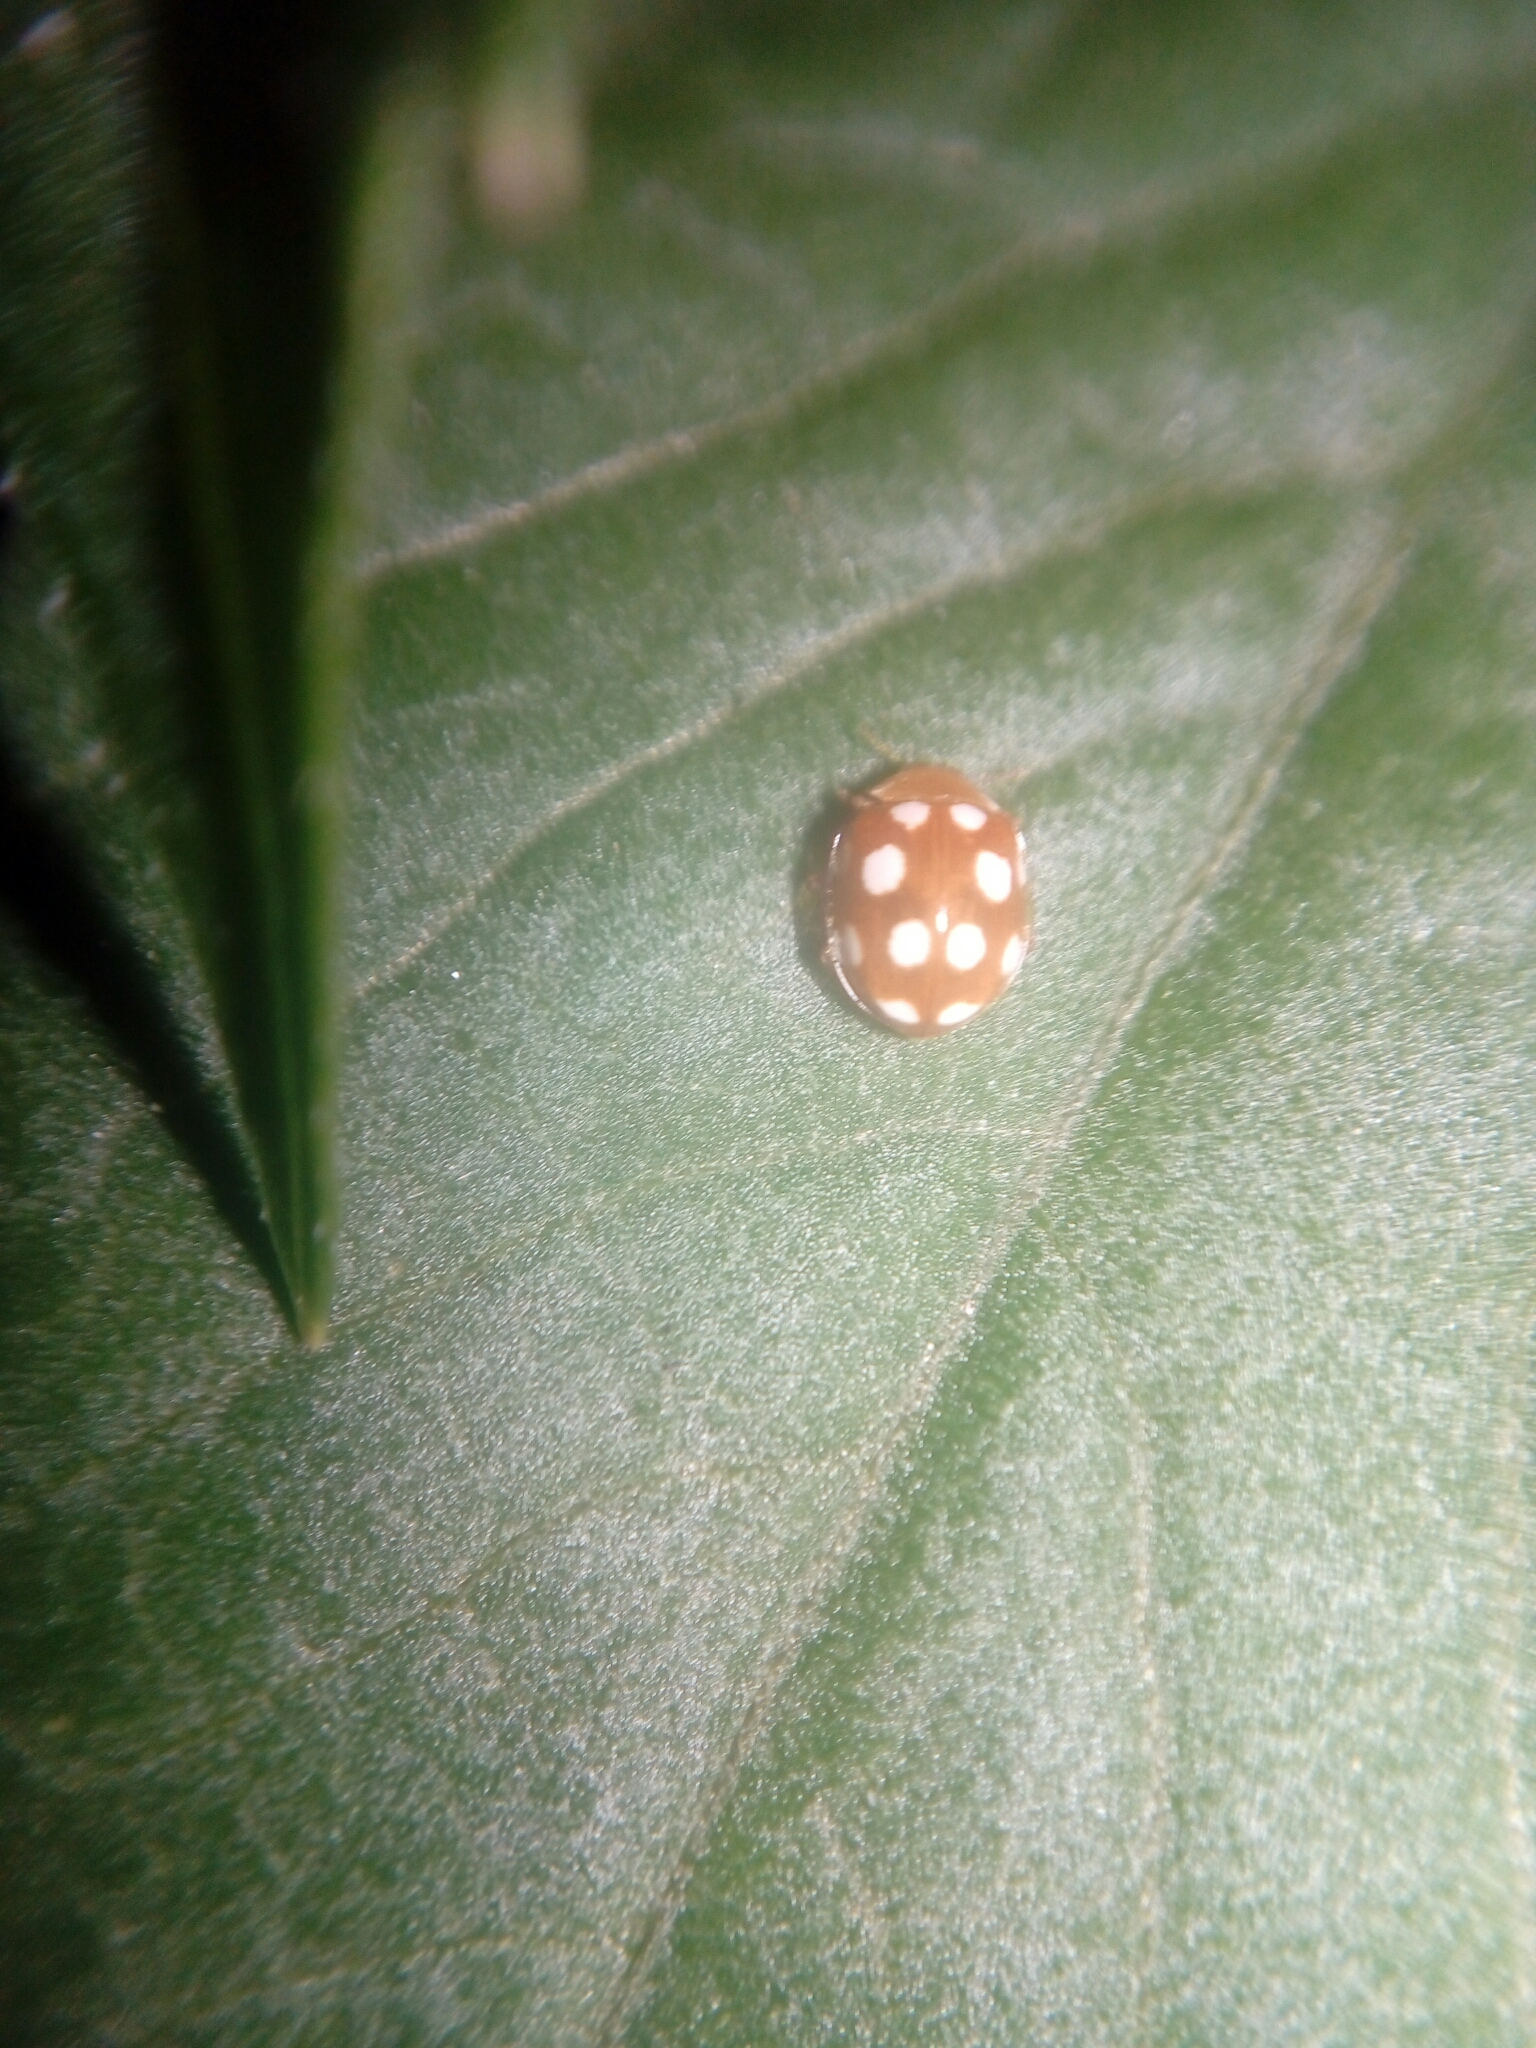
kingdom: Animalia
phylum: Arthropoda
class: Insecta
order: Coleoptera
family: Coccinellidae
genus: Vibidia
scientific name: Vibidia duodecimguttata
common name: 12-spot ladybird
